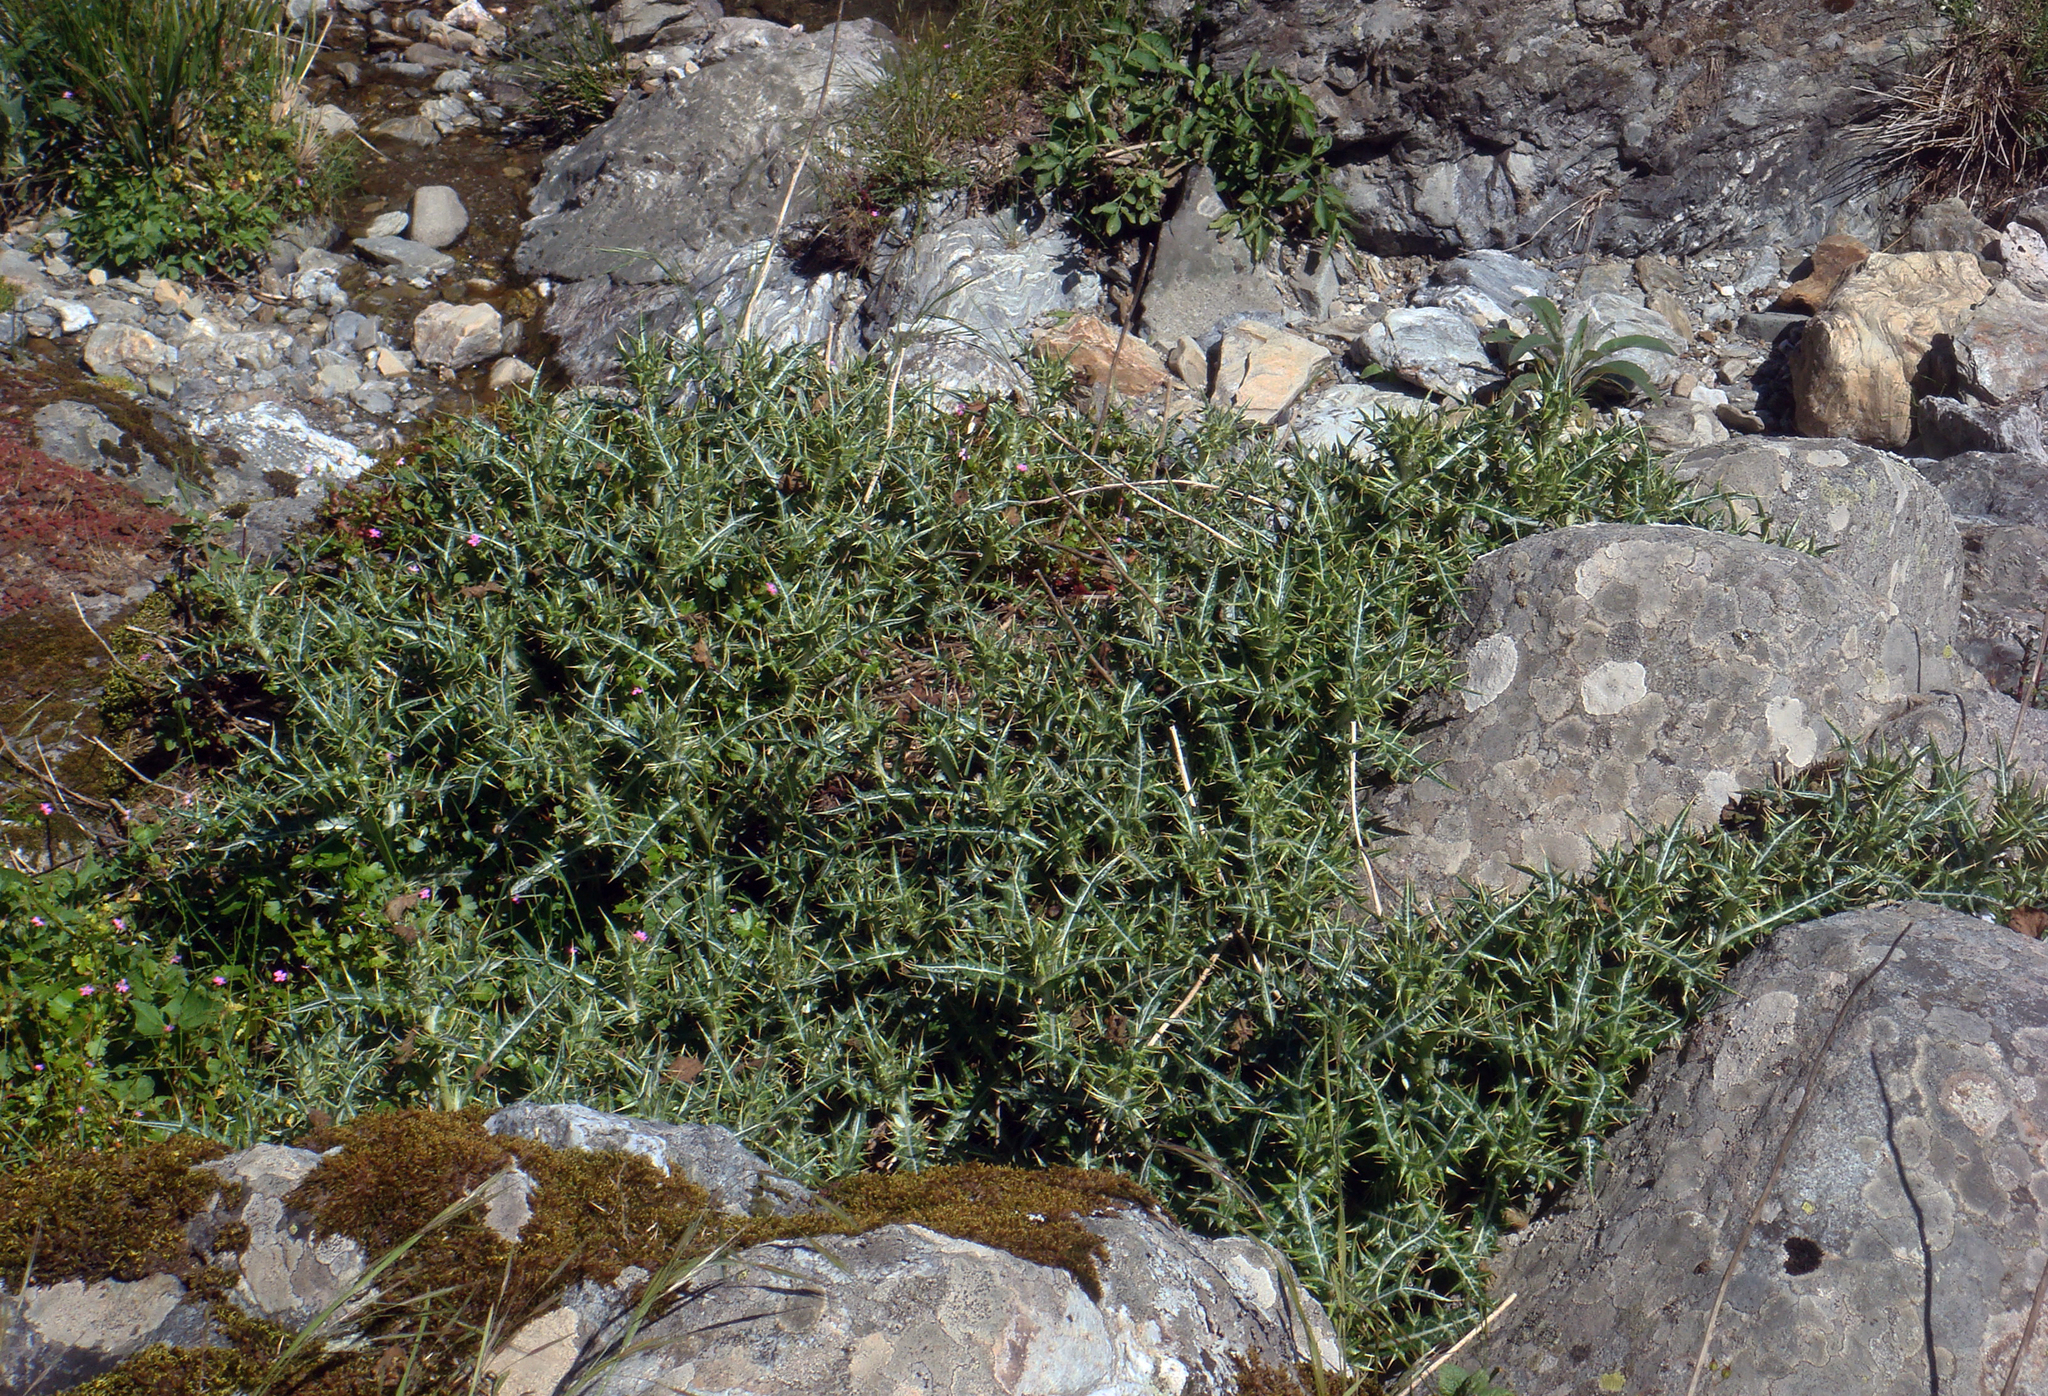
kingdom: Plantae
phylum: Tracheophyta
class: Magnoliopsida
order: Asterales
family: Asteraceae
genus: Lamyropsis
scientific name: Lamyropsis microcephala
